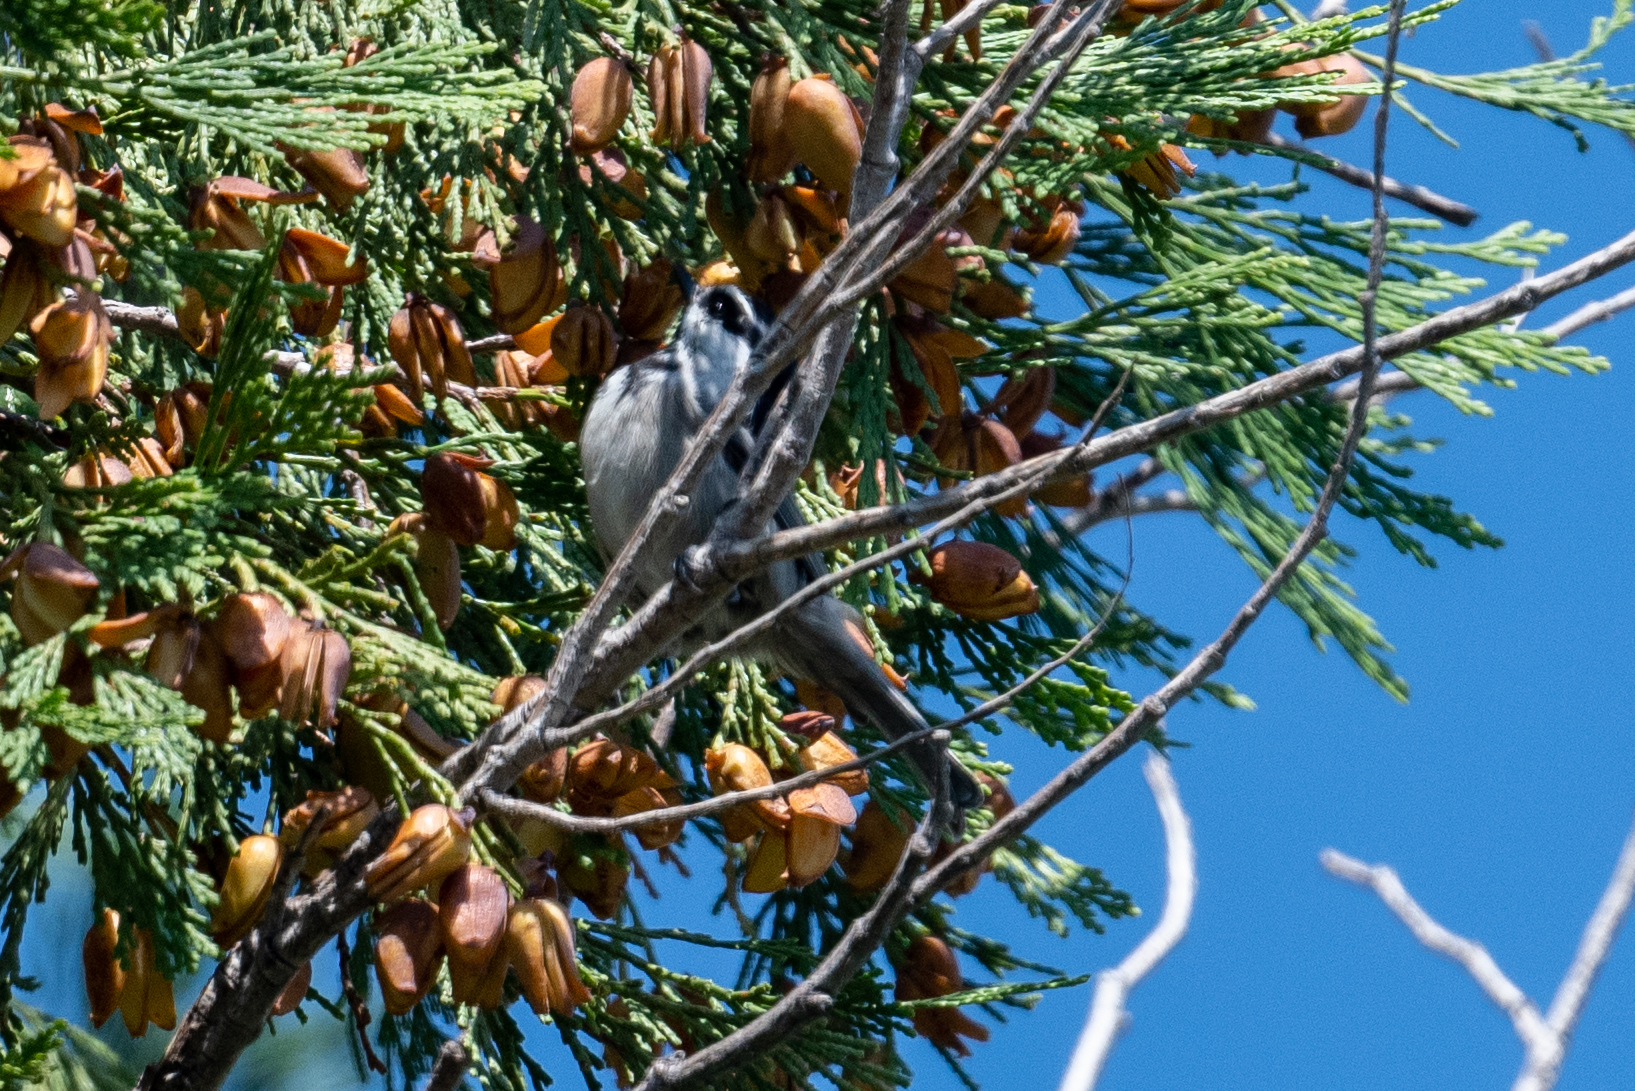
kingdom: Animalia
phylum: Chordata
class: Aves
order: Passeriformes
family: Paridae
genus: Poecile
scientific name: Poecile gambeli
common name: Mountain chickadee
